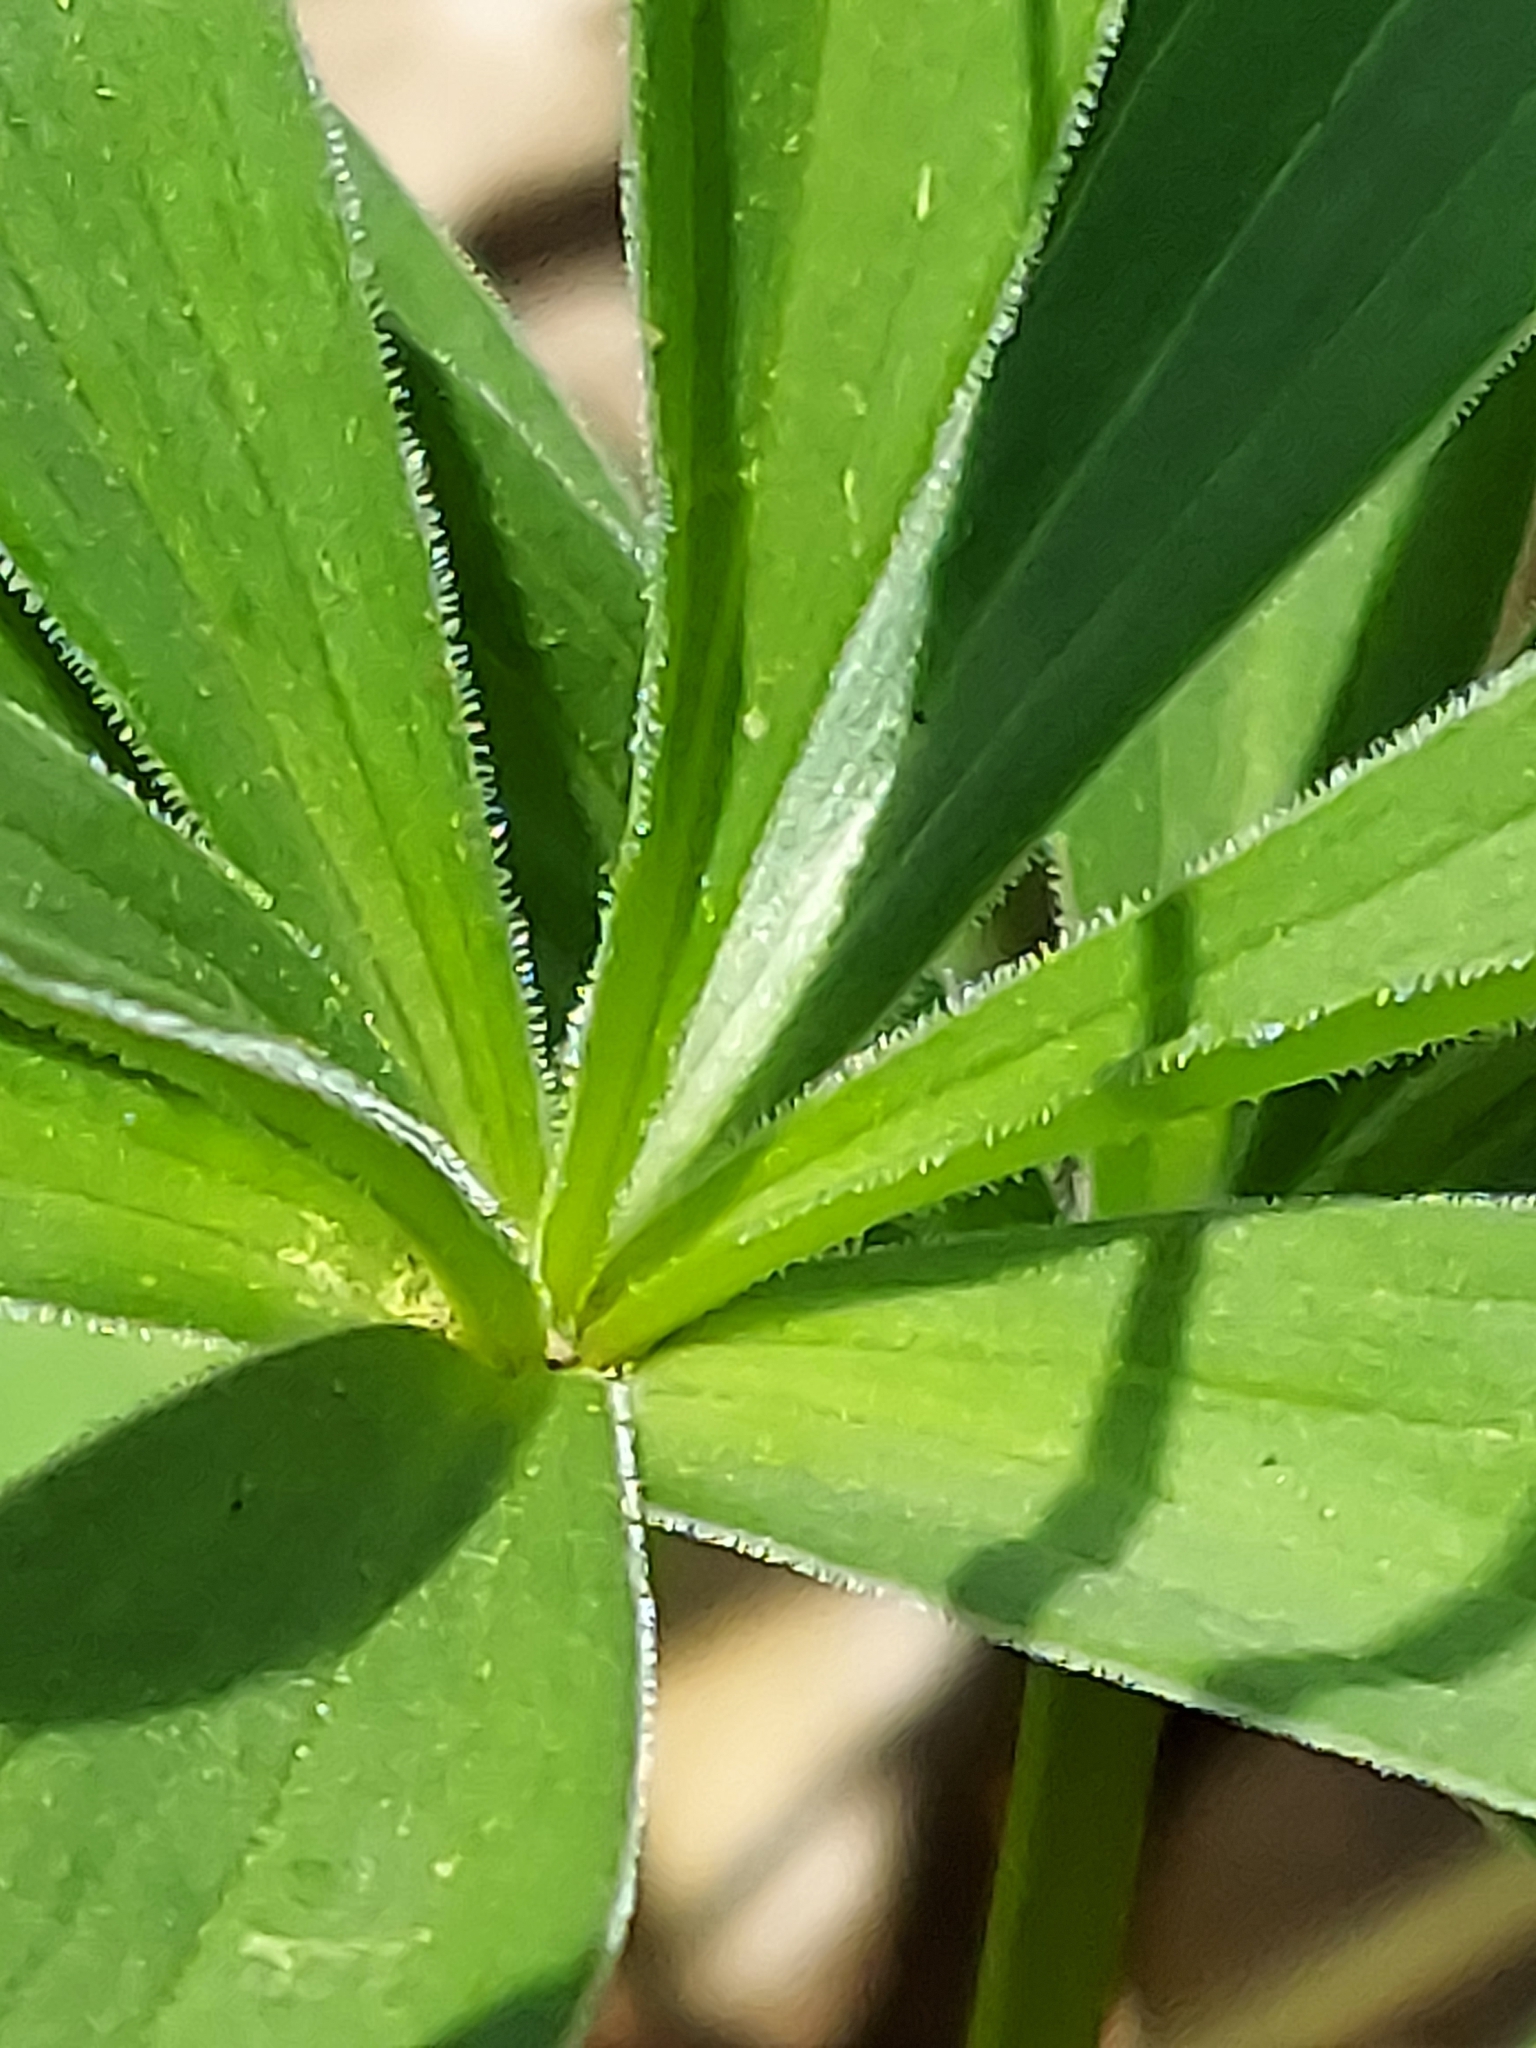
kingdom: Plantae
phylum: Tracheophyta
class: Liliopsida
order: Liliales
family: Liliaceae
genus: Lilium
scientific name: Lilium michiganense
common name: Michigan lily
